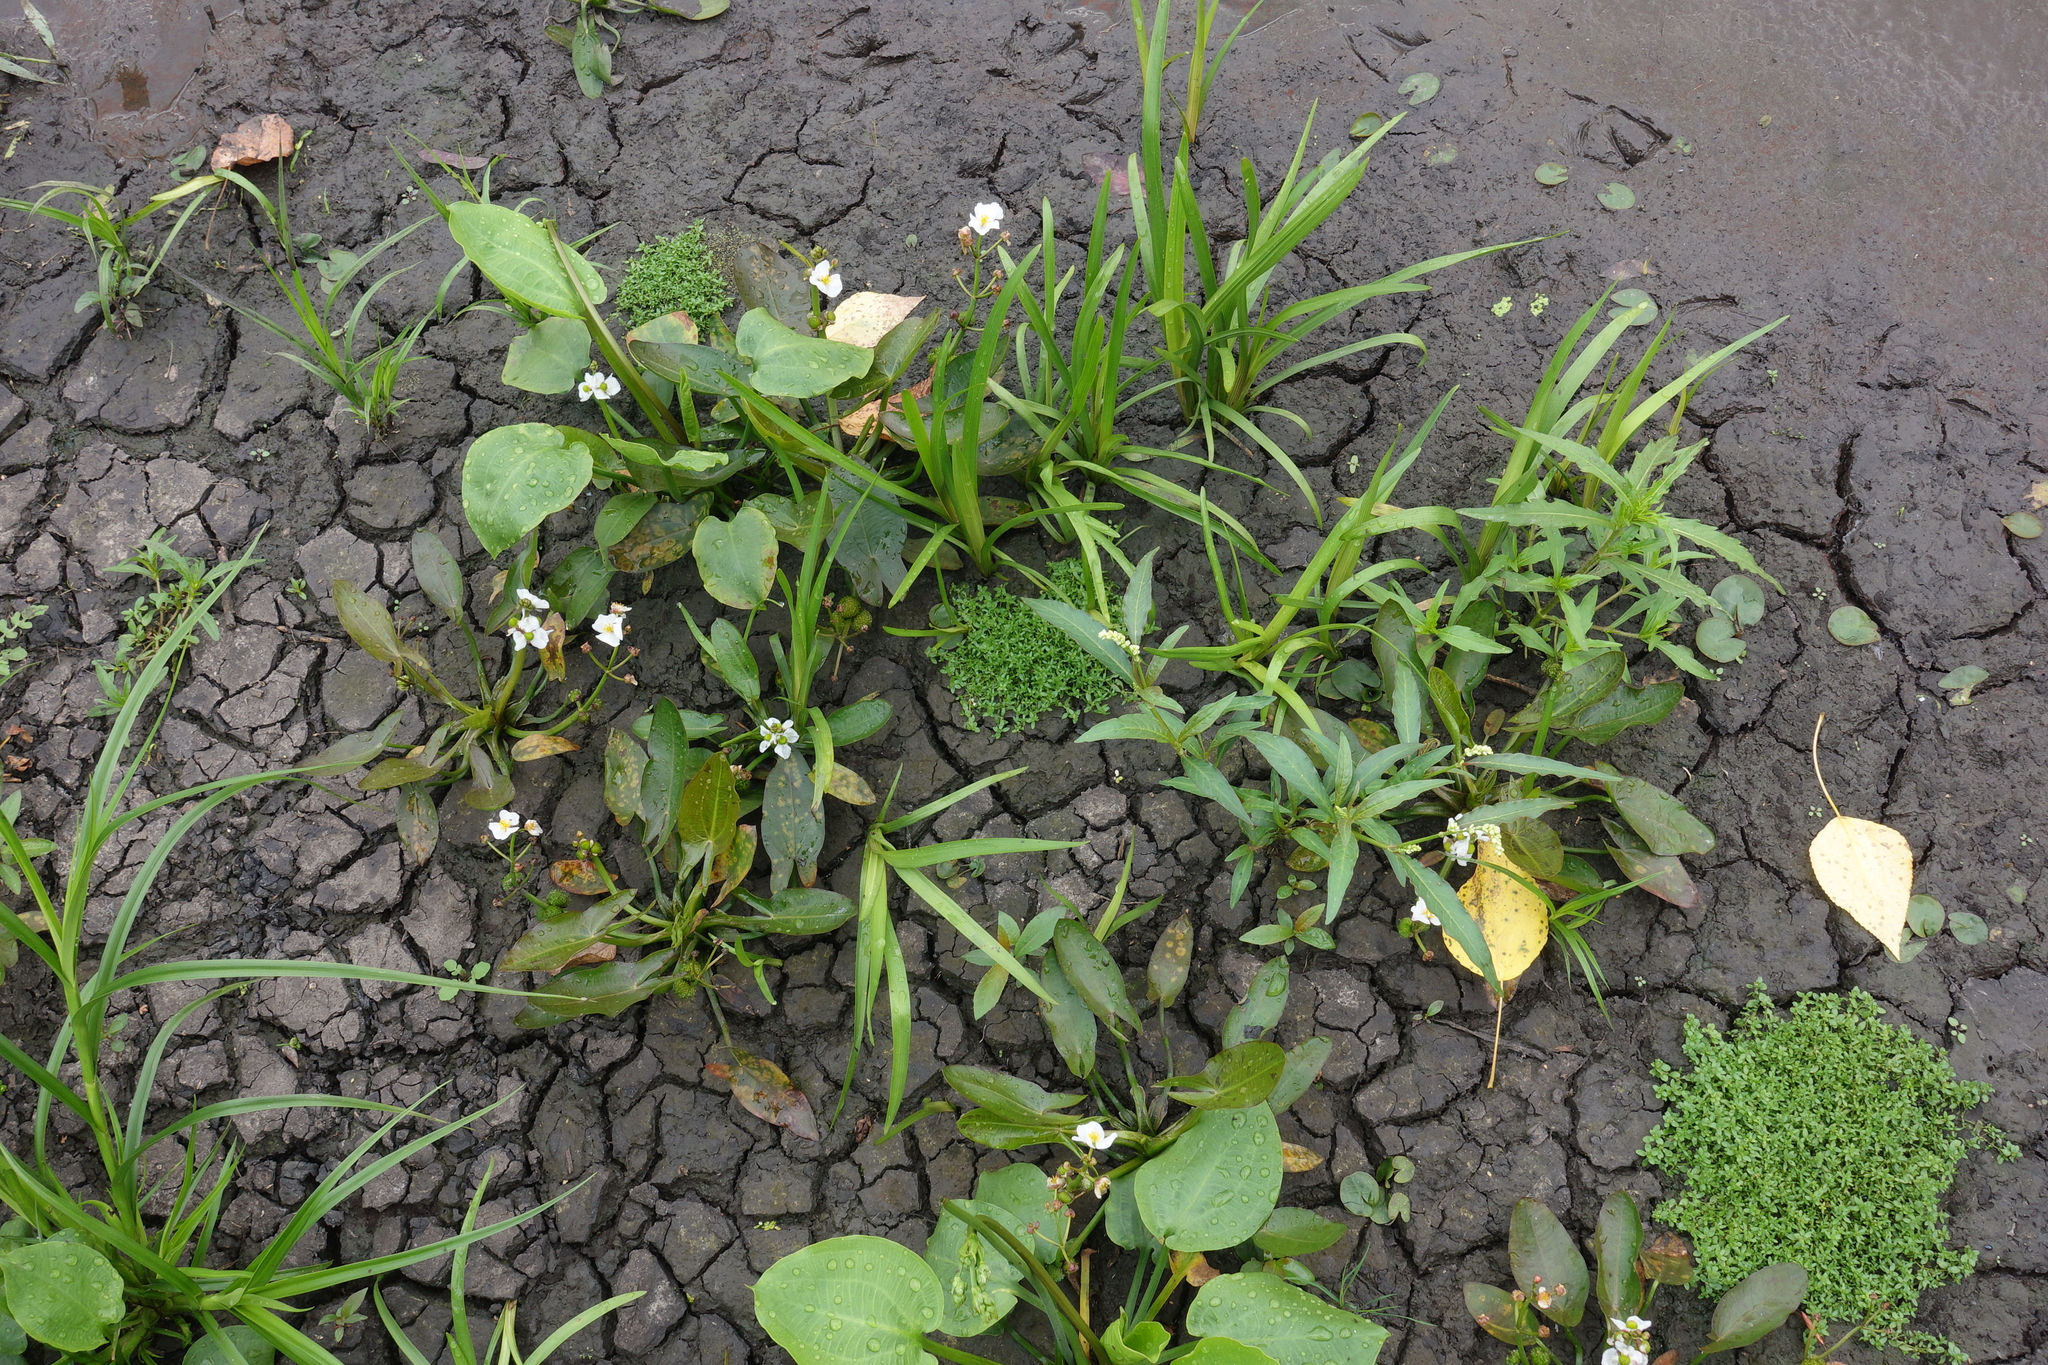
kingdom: Plantae
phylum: Tracheophyta
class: Liliopsida
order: Alismatales
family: Alismataceae
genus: Sagittaria
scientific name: Sagittaria natans
